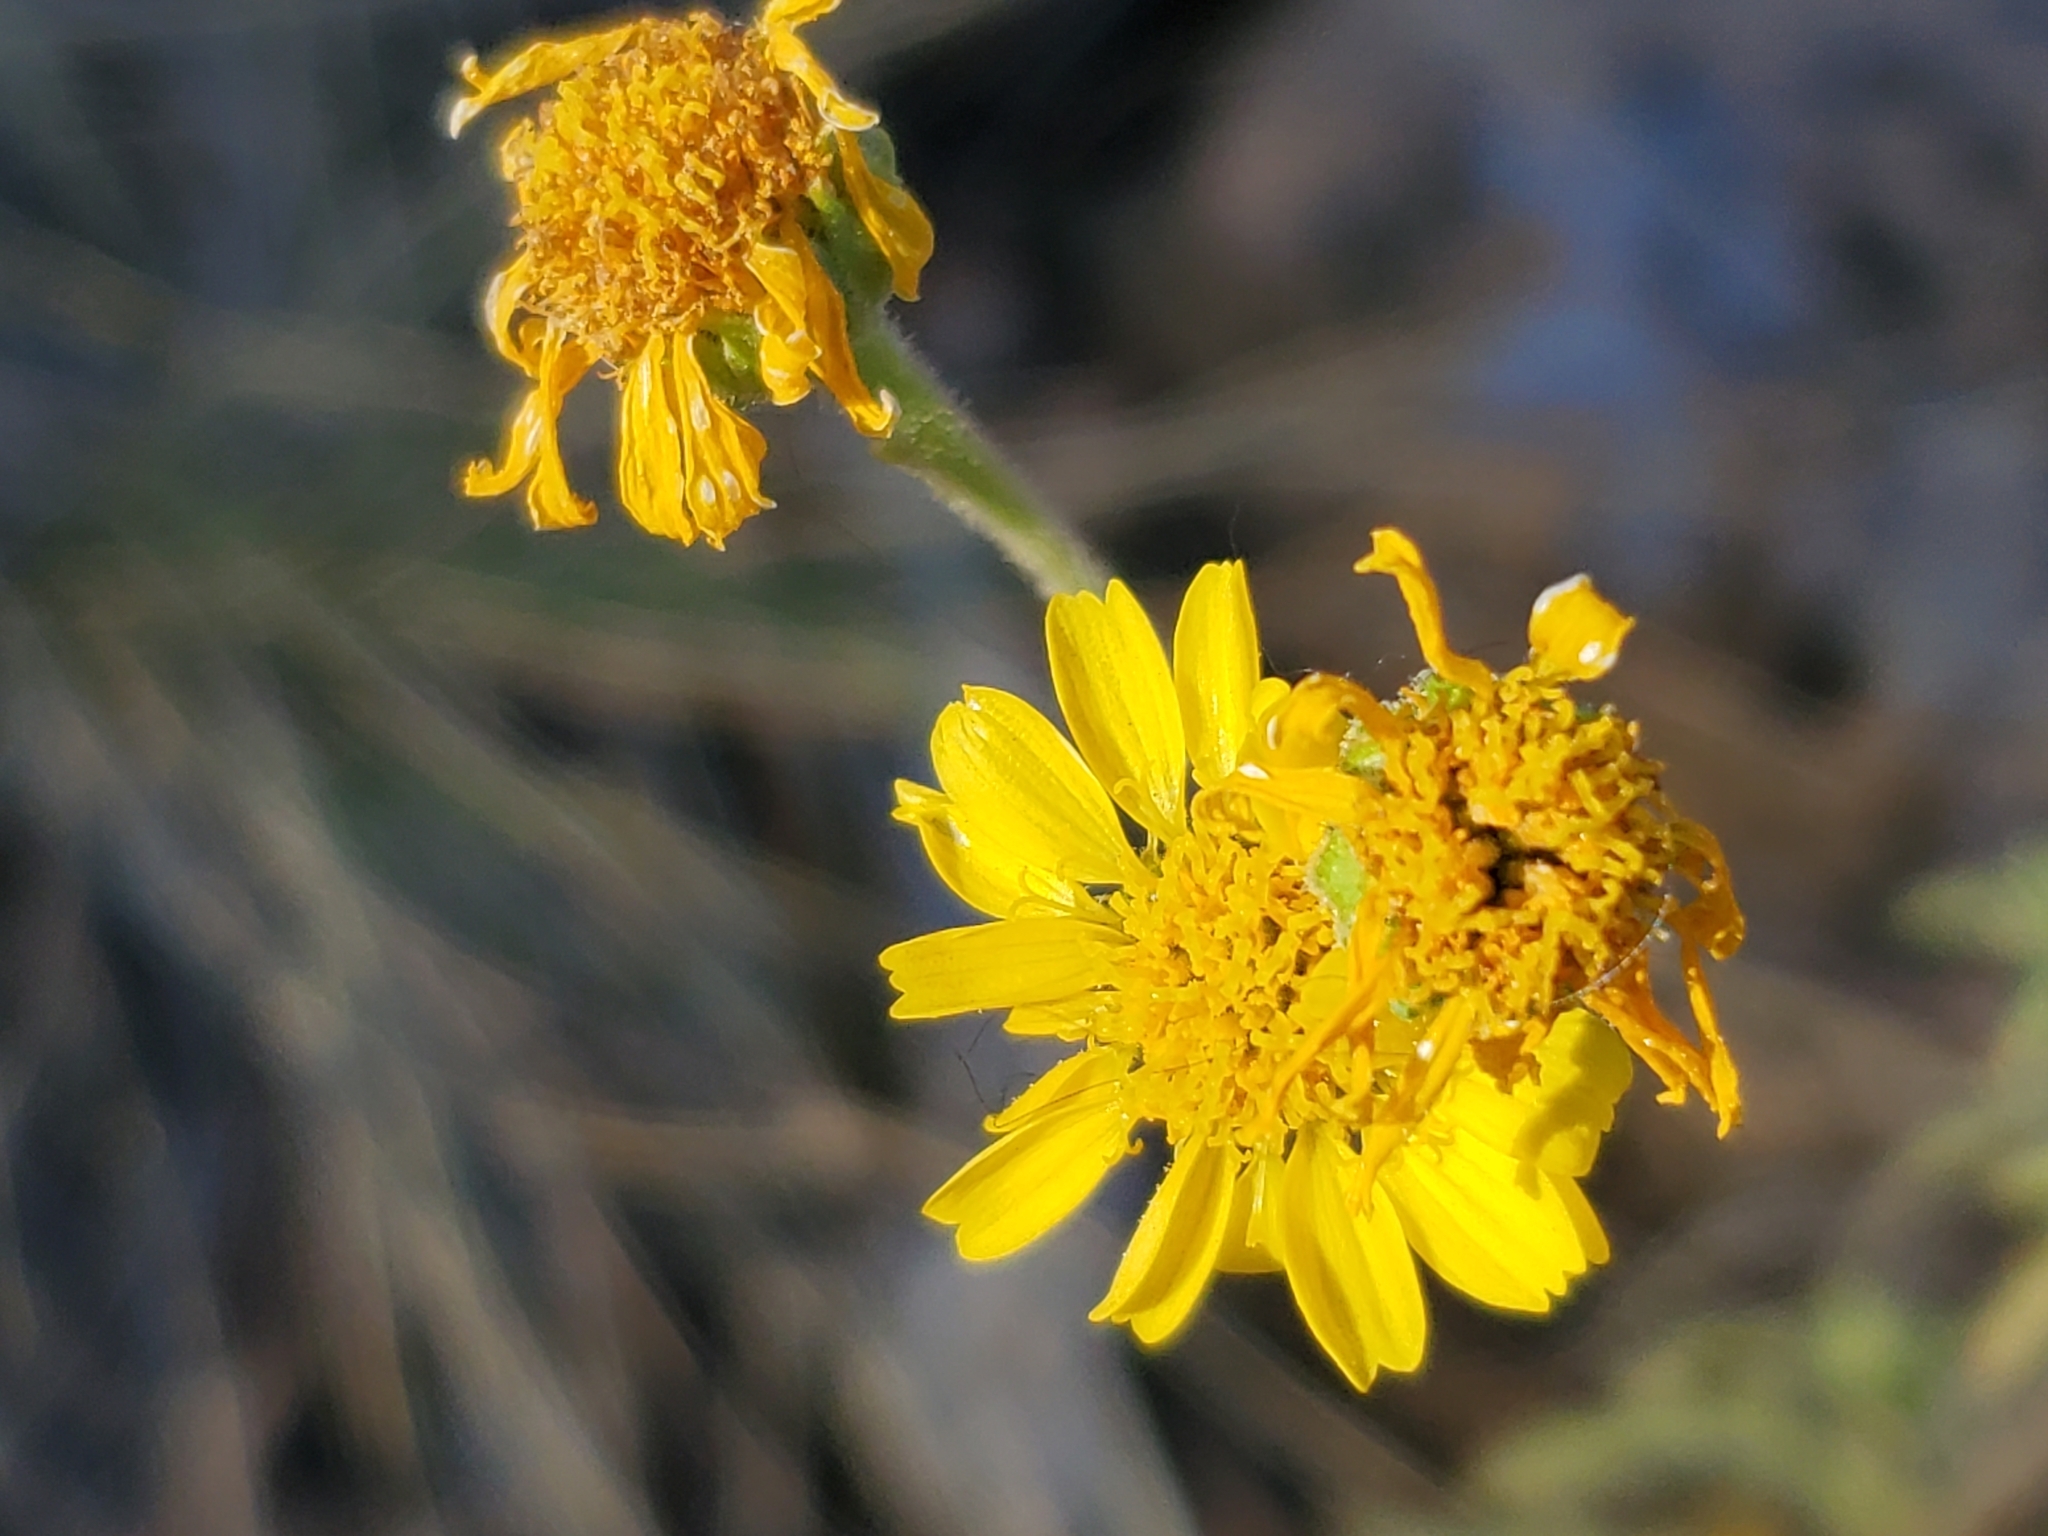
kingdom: Plantae
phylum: Tracheophyta
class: Magnoliopsida
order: Asterales
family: Asteraceae
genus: Hymenothrix
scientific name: Hymenothrix dissecta
